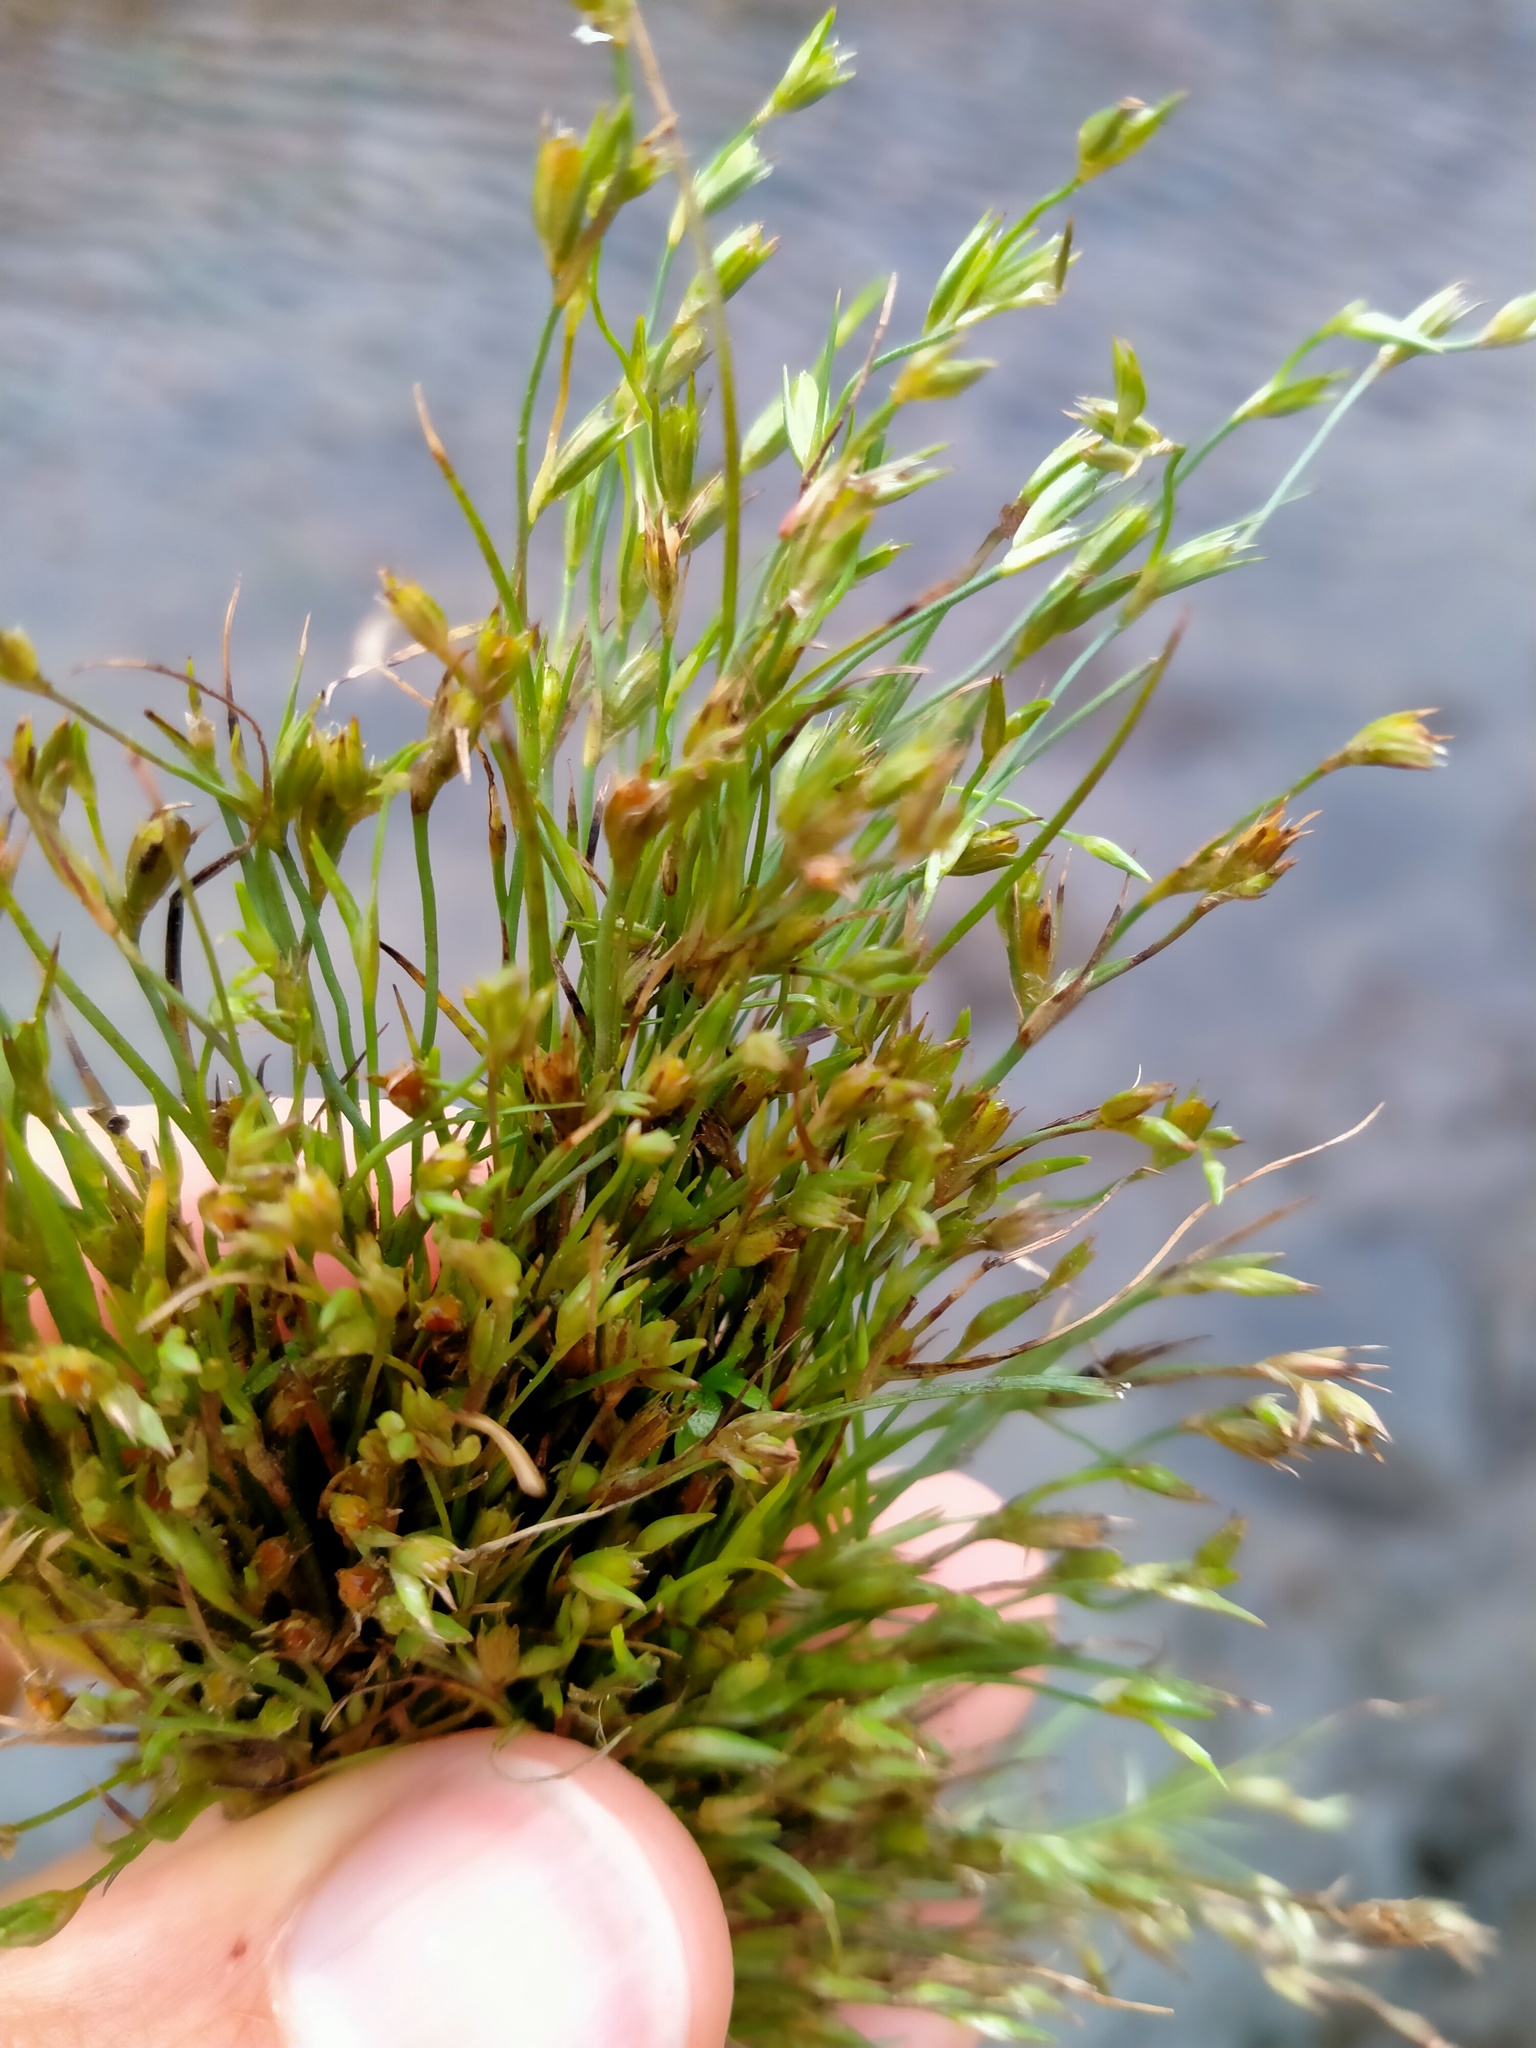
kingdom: Plantae
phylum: Tracheophyta
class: Liliopsida
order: Poales
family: Juncaceae
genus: Juncus
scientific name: Juncus bufonius
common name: Toad rush
